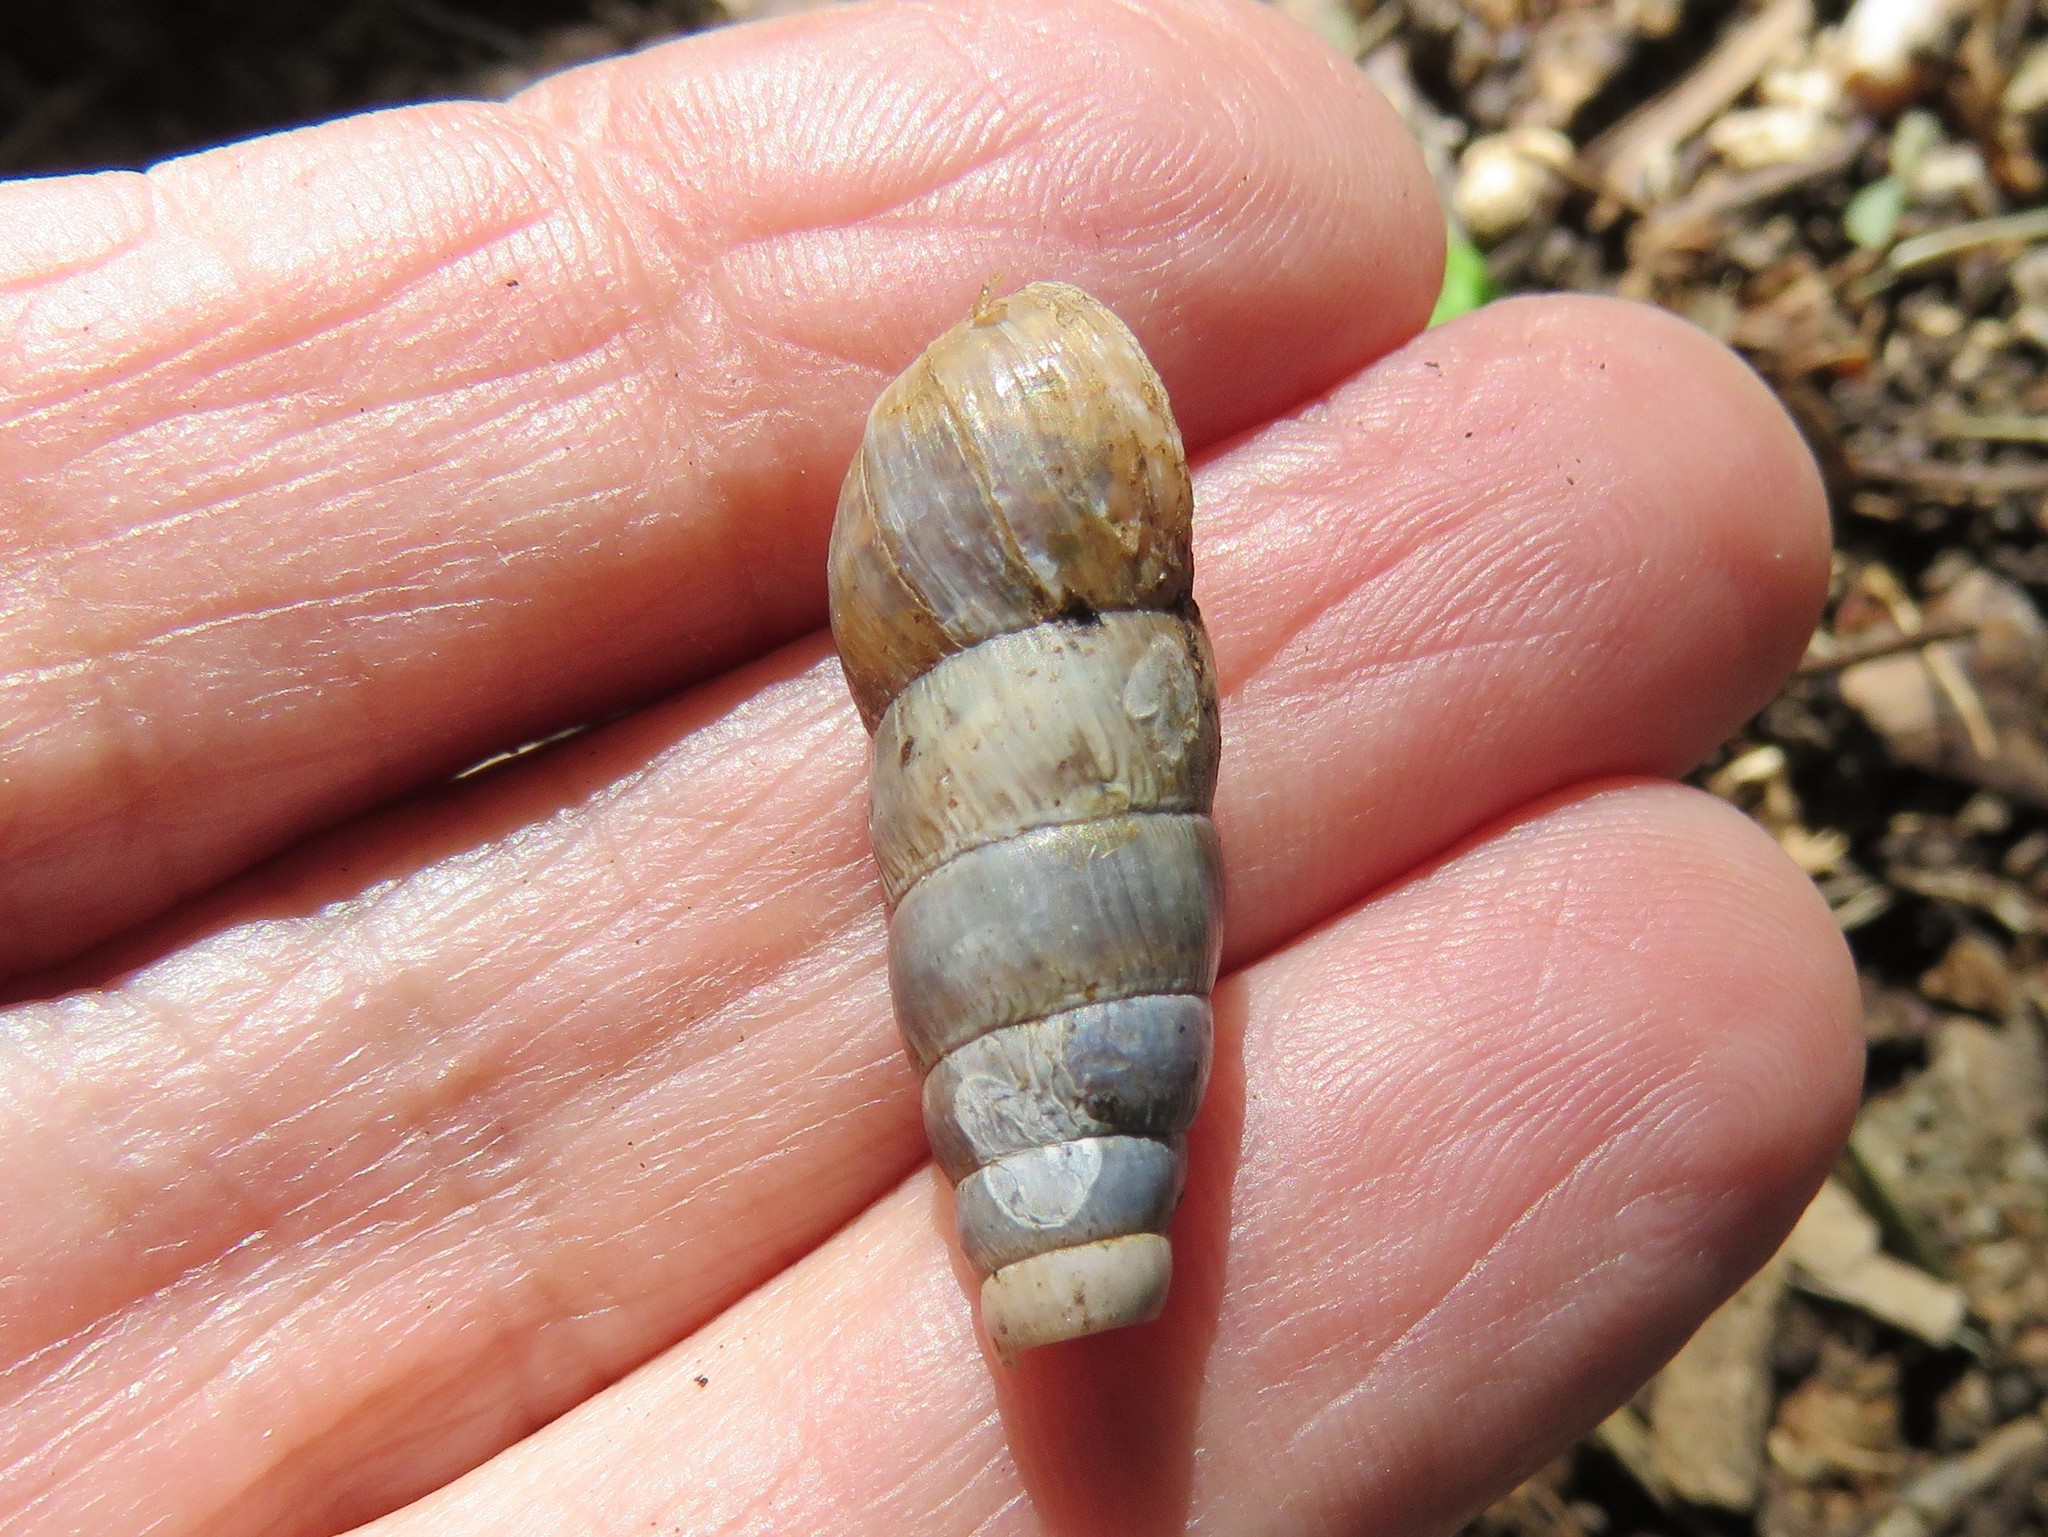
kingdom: Animalia
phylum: Mollusca
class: Gastropoda
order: Stylommatophora
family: Achatinidae
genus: Rumina
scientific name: Rumina decollata
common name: Decollate snail
